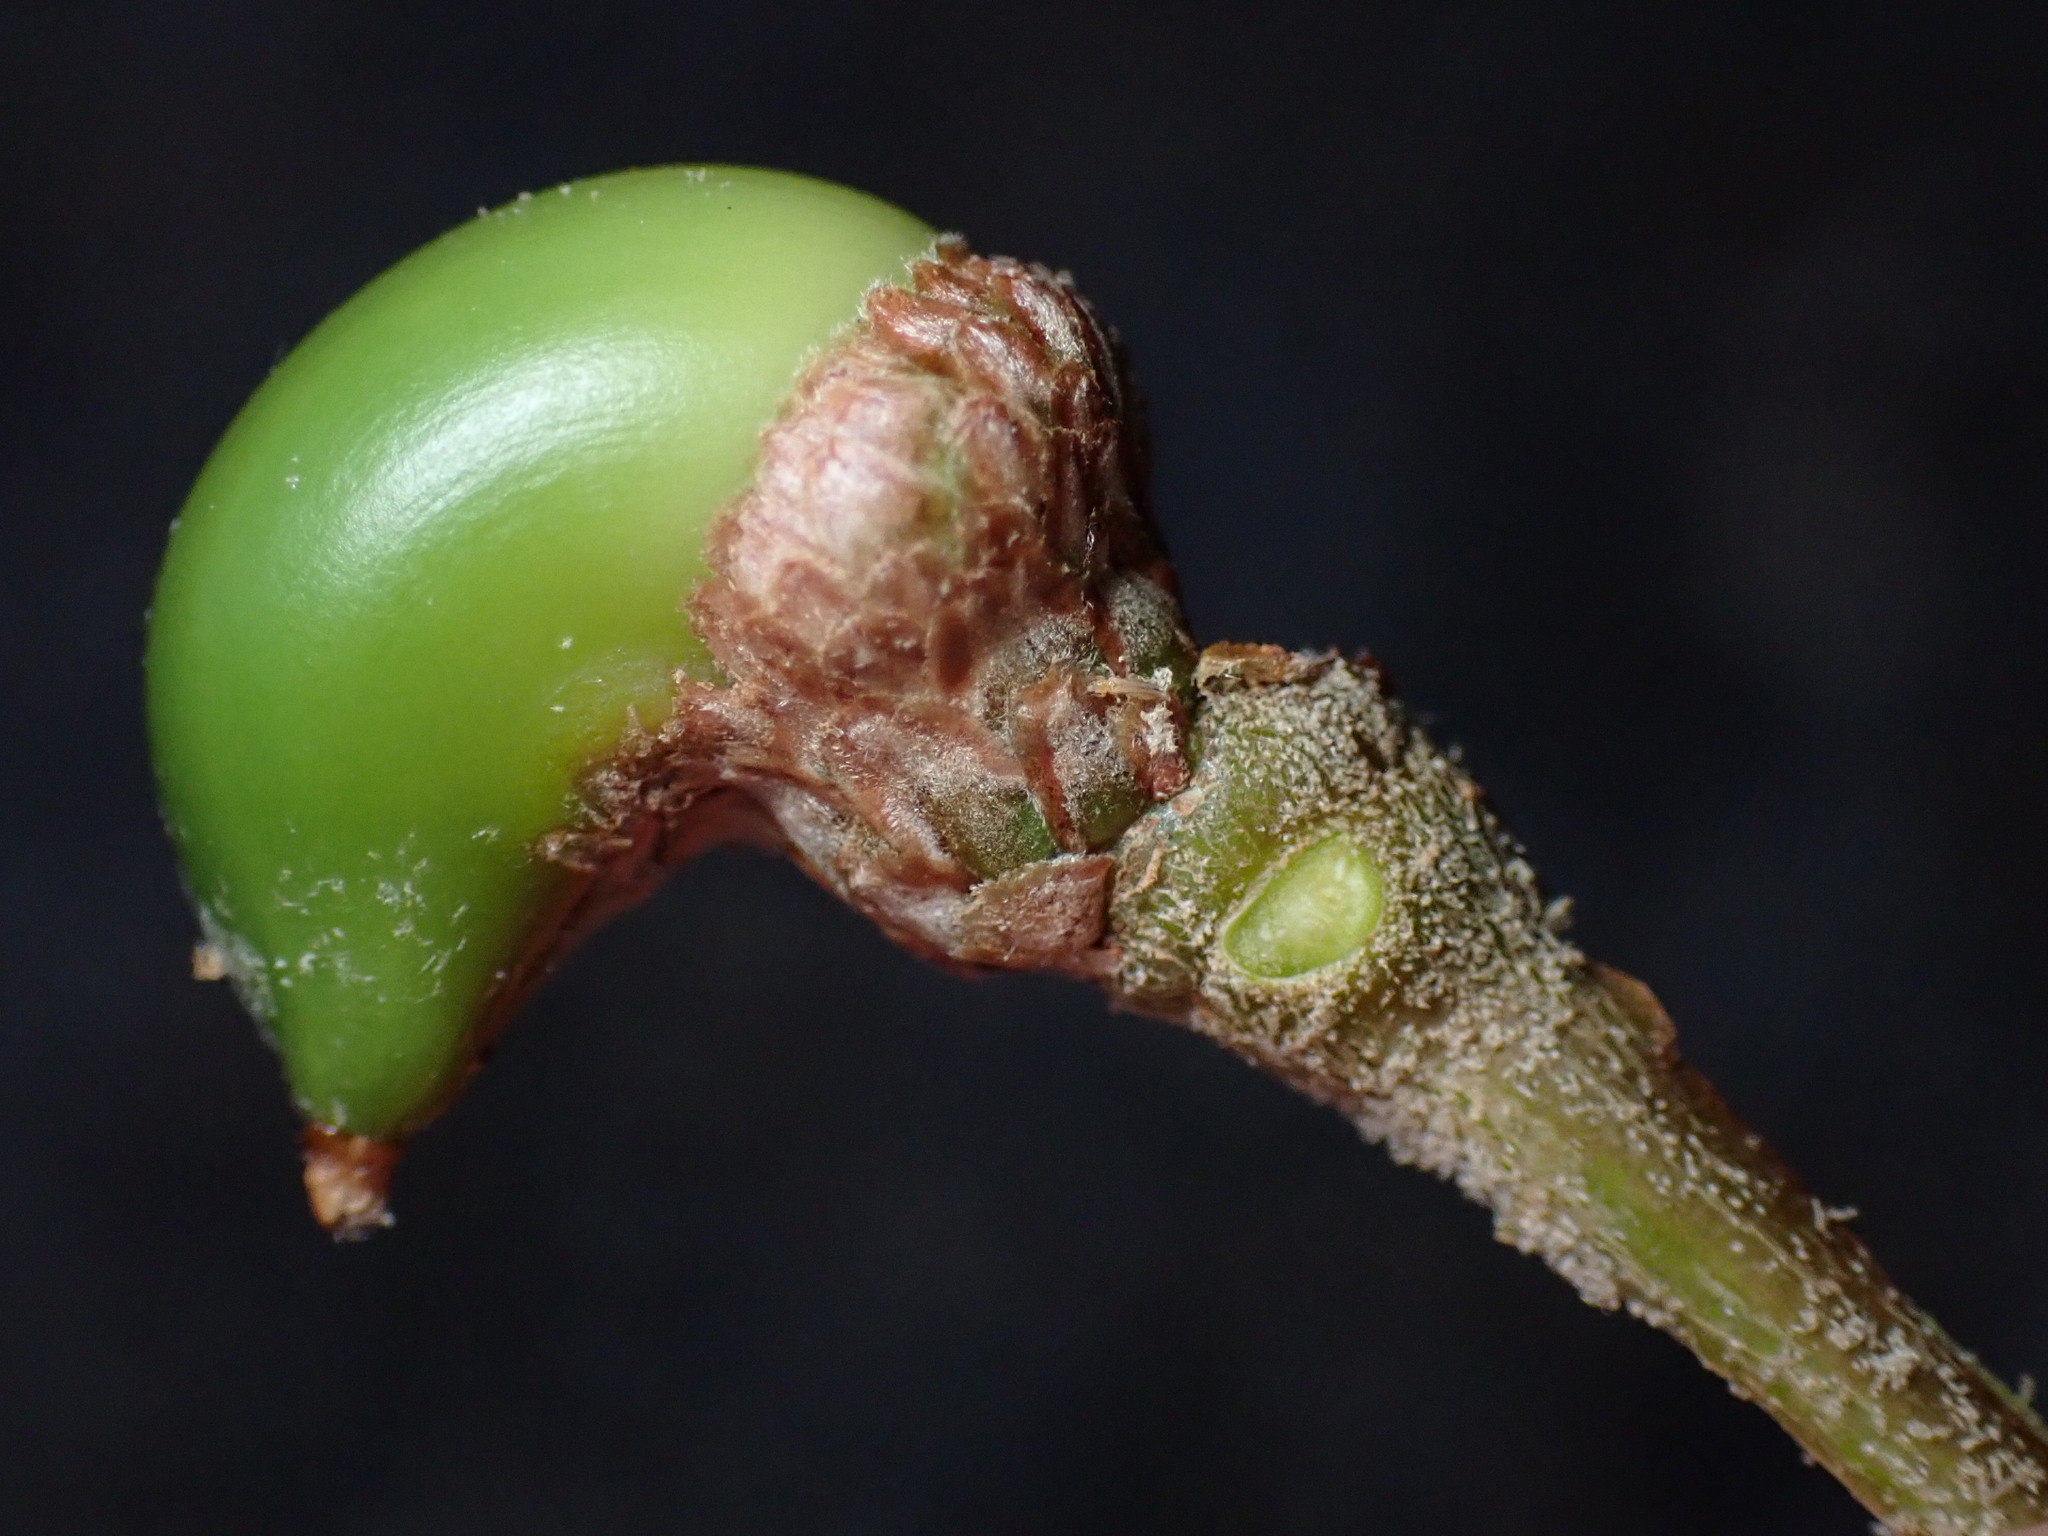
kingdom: Animalia
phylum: Arthropoda
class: Insecta
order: Hymenoptera
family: Cynipidae
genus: Callirhytis
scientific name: Callirhytis
